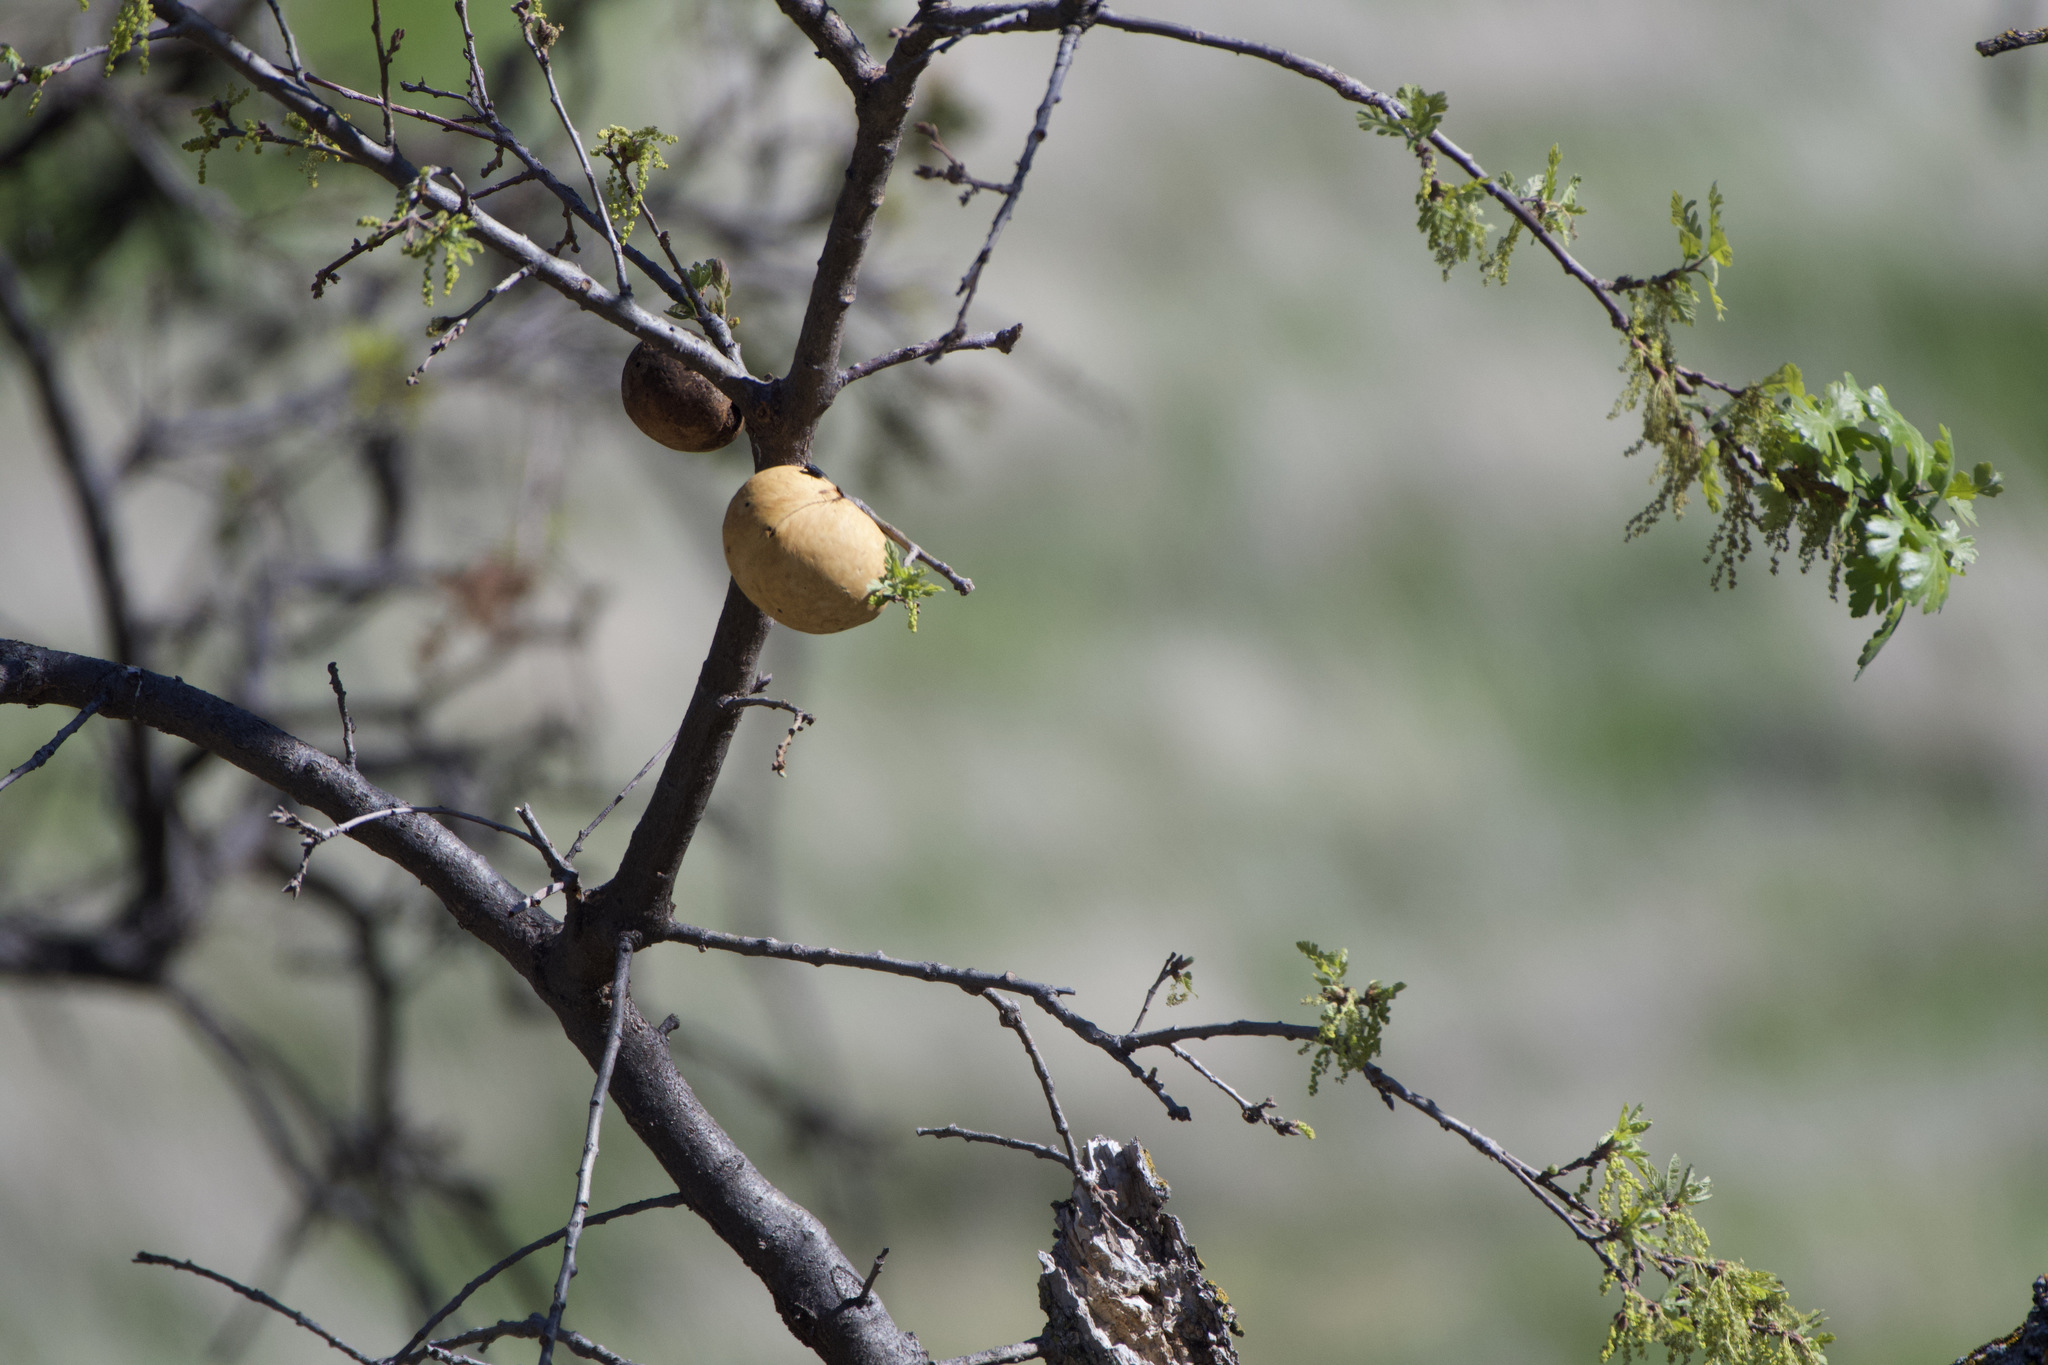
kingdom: Animalia
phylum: Arthropoda
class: Insecta
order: Hymenoptera
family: Cynipidae
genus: Andricus
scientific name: Andricus quercuscalifornicus
